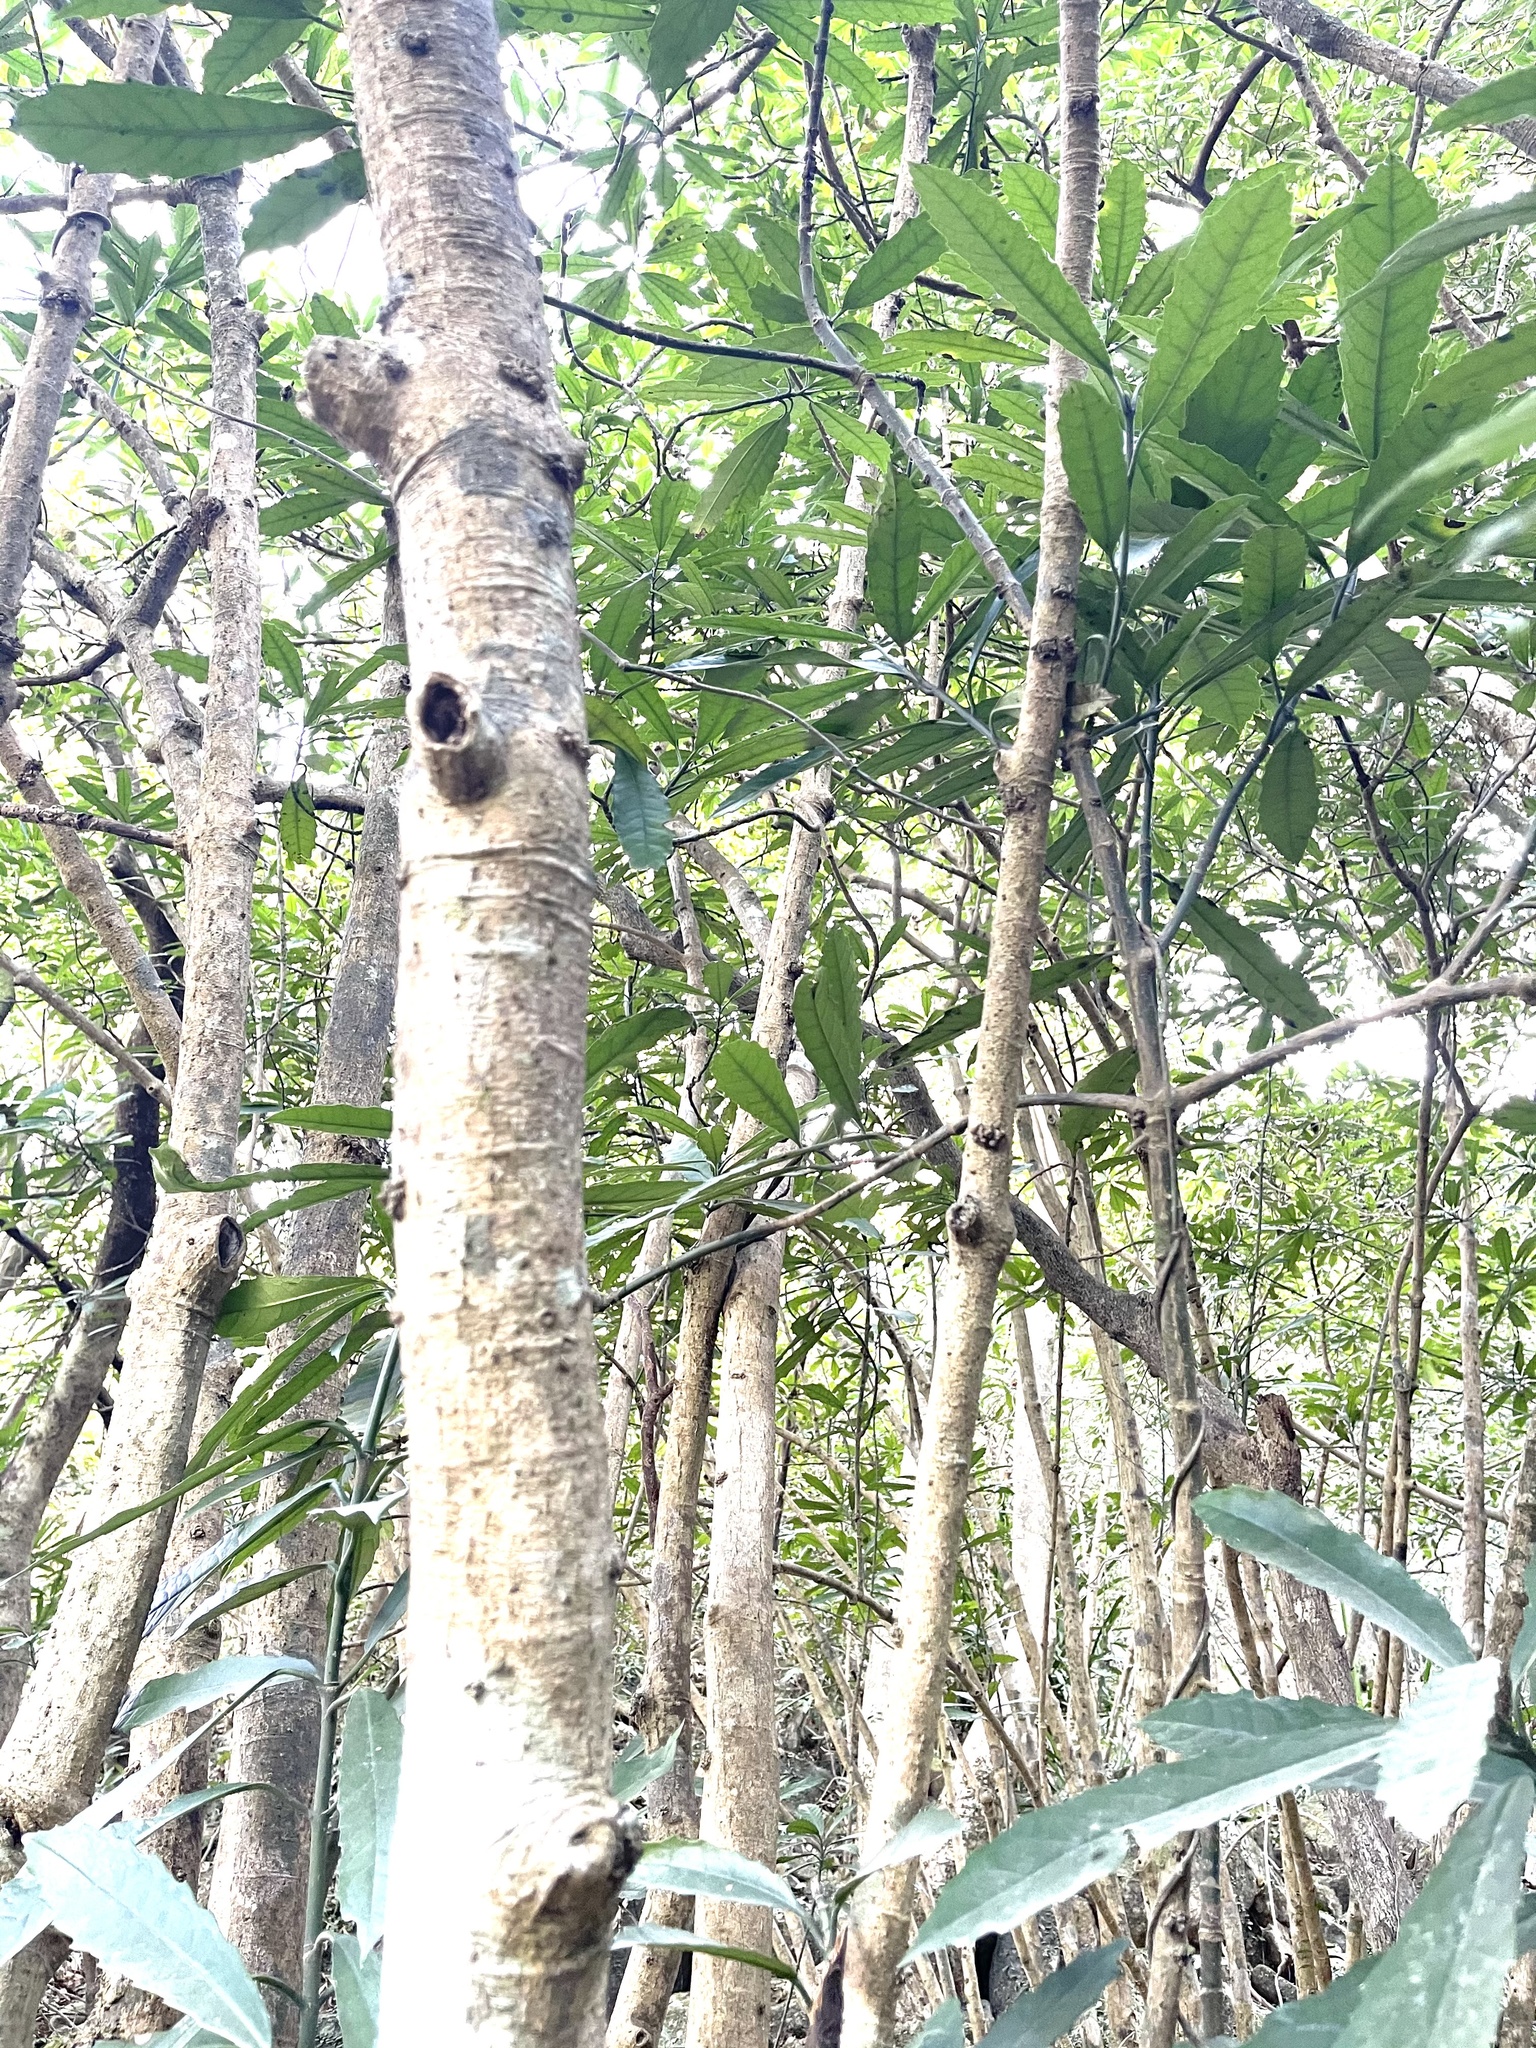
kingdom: Plantae
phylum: Tracheophyta
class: Magnoliopsida
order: Garryales
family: Garryaceae
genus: Aucuba
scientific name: Aucuba chinensis
